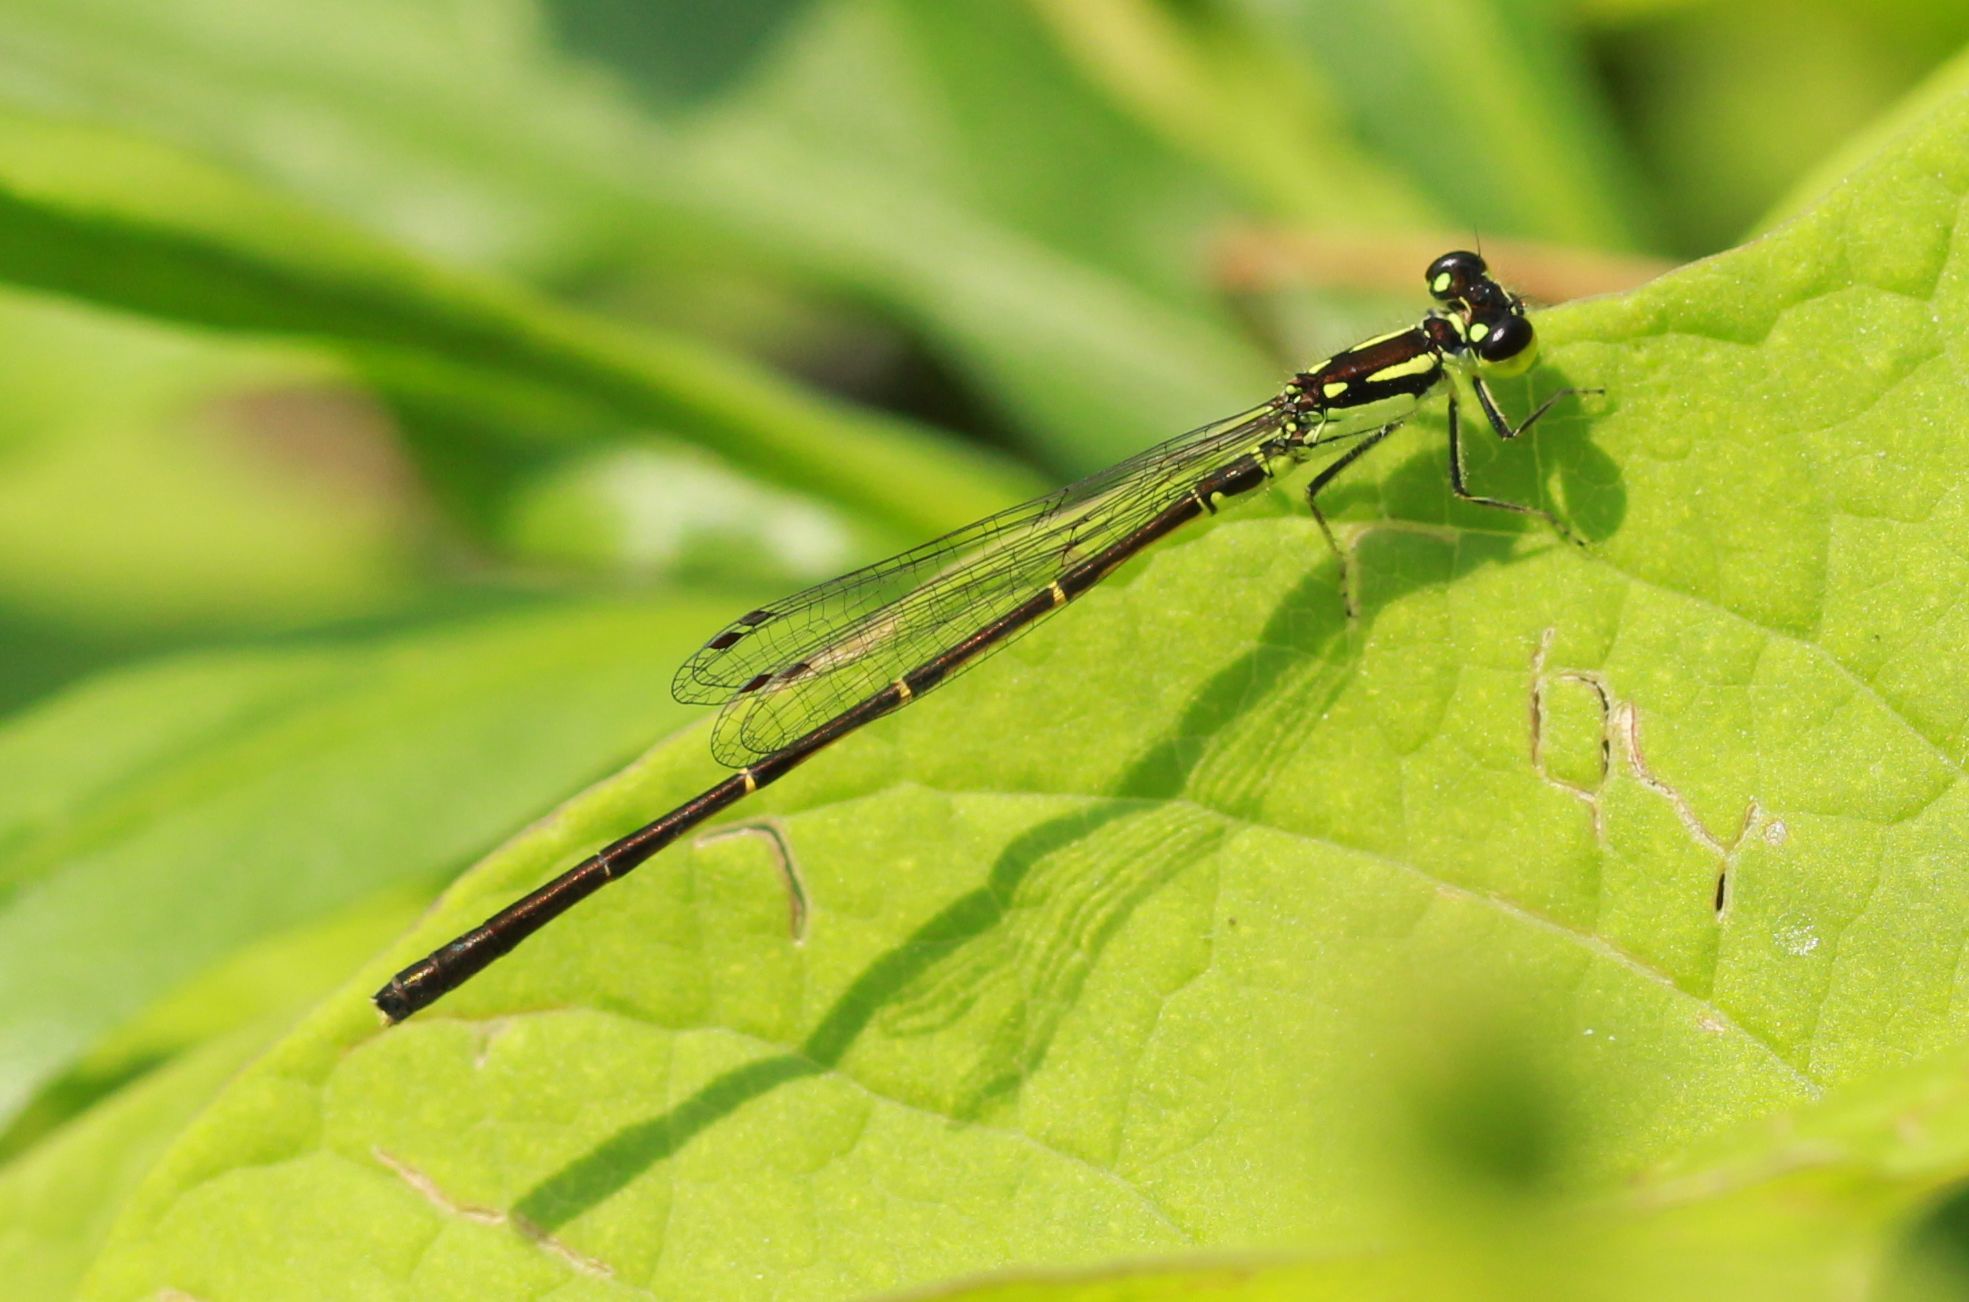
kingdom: Animalia
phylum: Arthropoda
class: Insecta
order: Odonata
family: Coenagrionidae
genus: Ischnura
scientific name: Ischnura posita
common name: Fragile forktail
